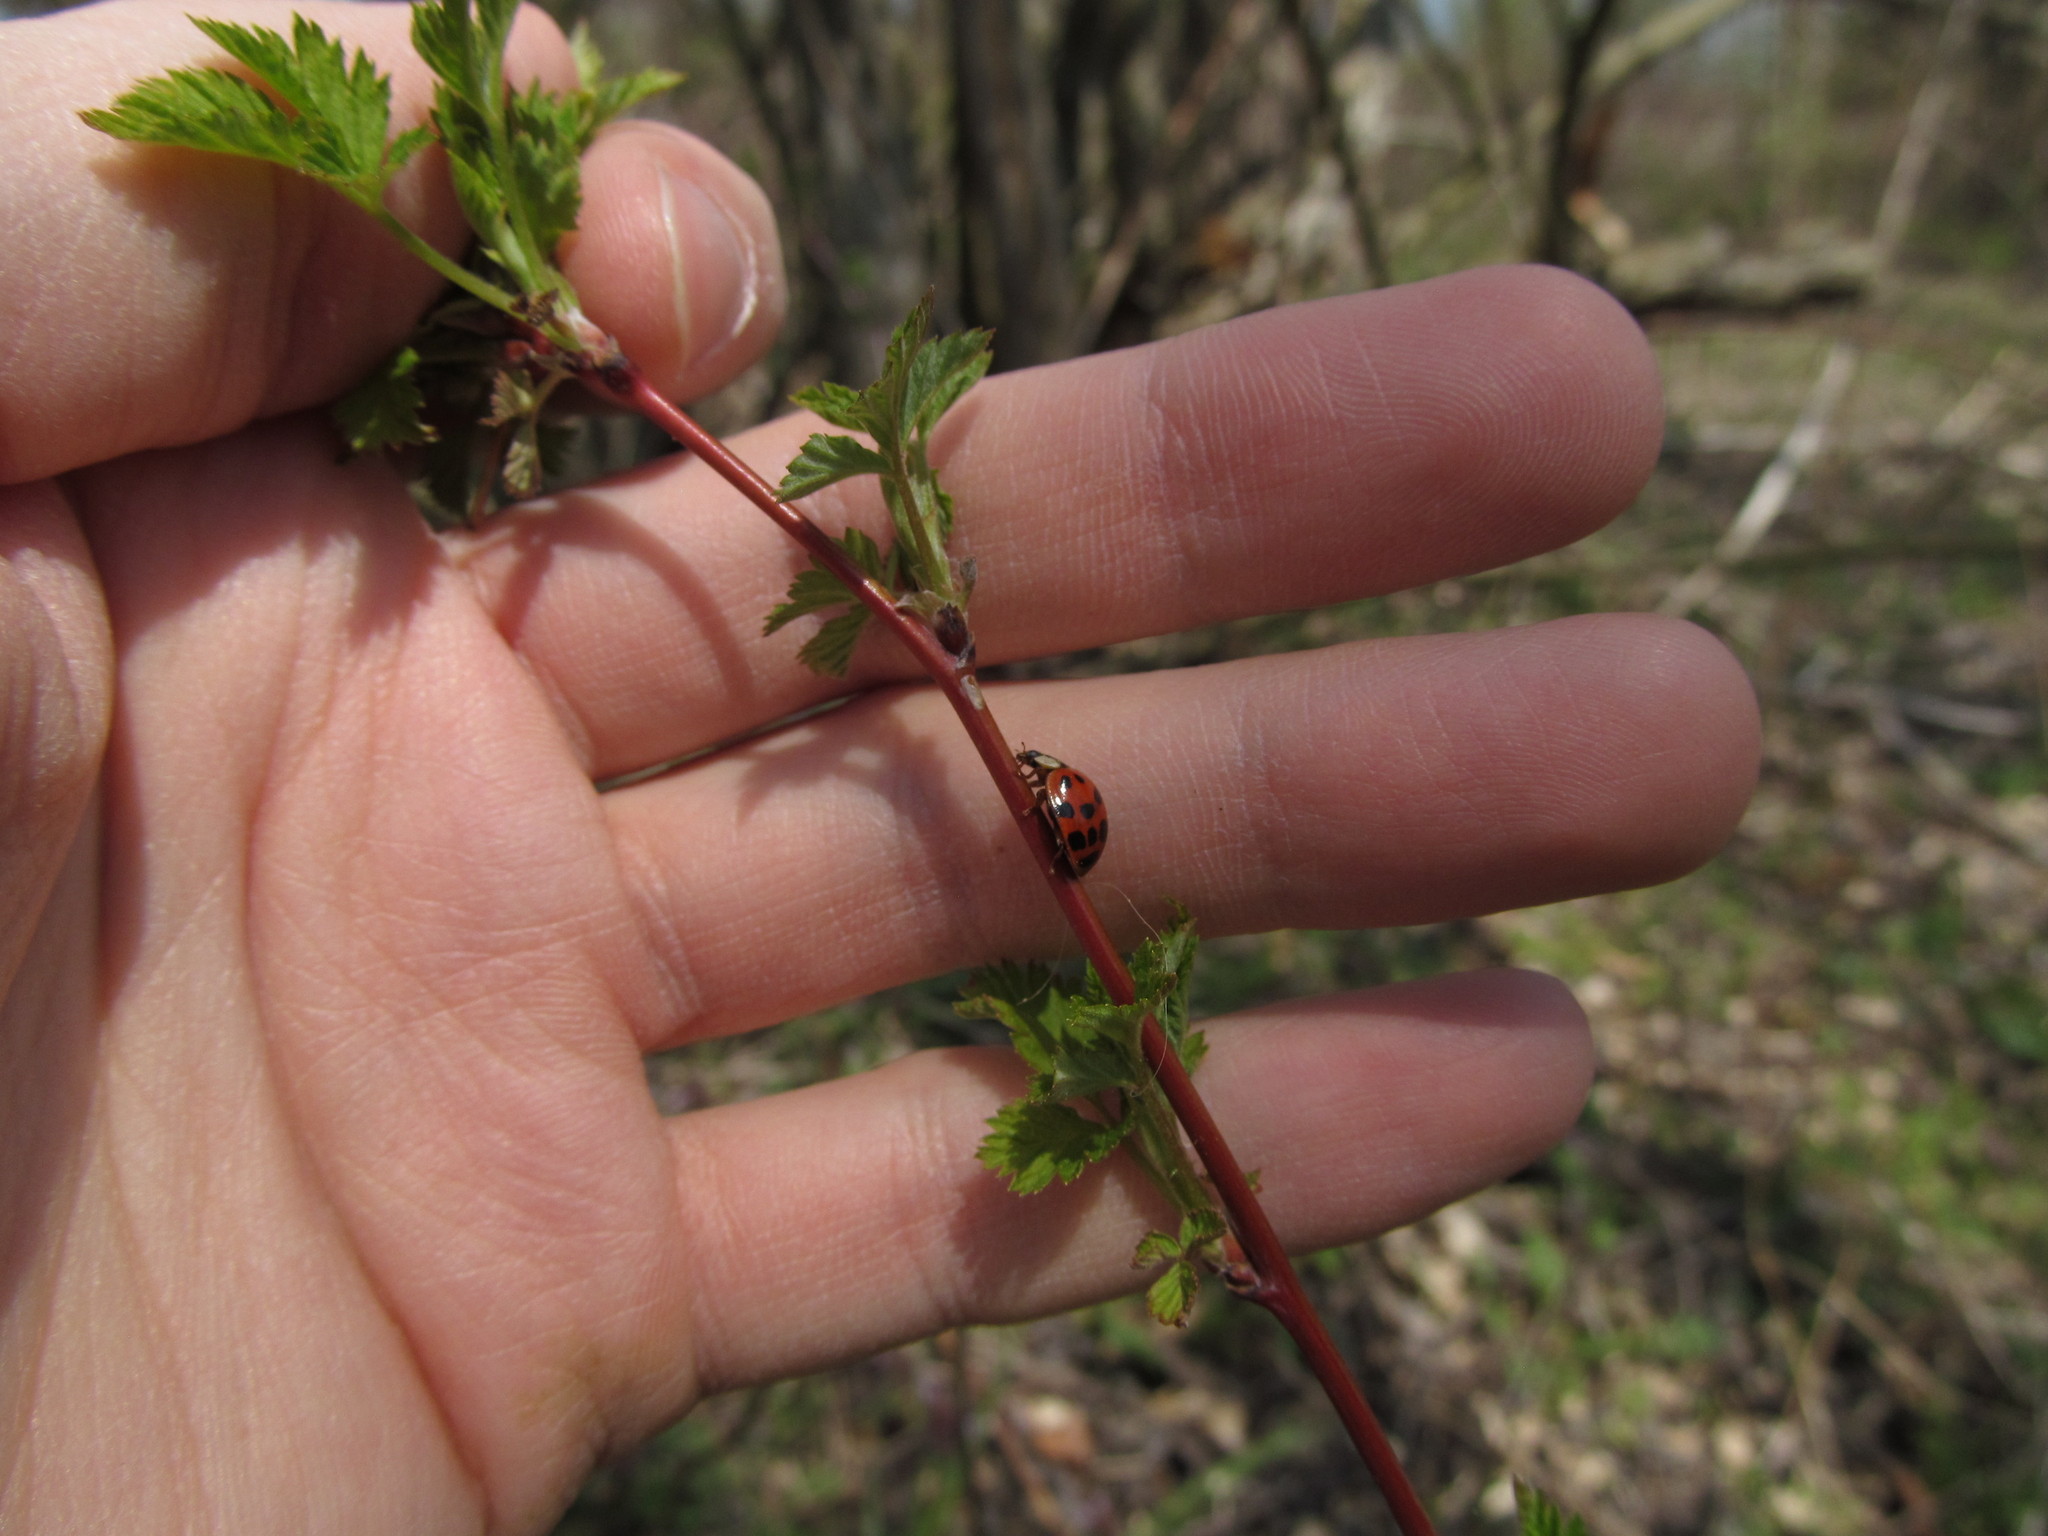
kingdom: Animalia
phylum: Arthropoda
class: Insecta
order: Coleoptera
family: Coccinellidae
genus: Harmonia
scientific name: Harmonia axyridis
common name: Harlequin ladybird
